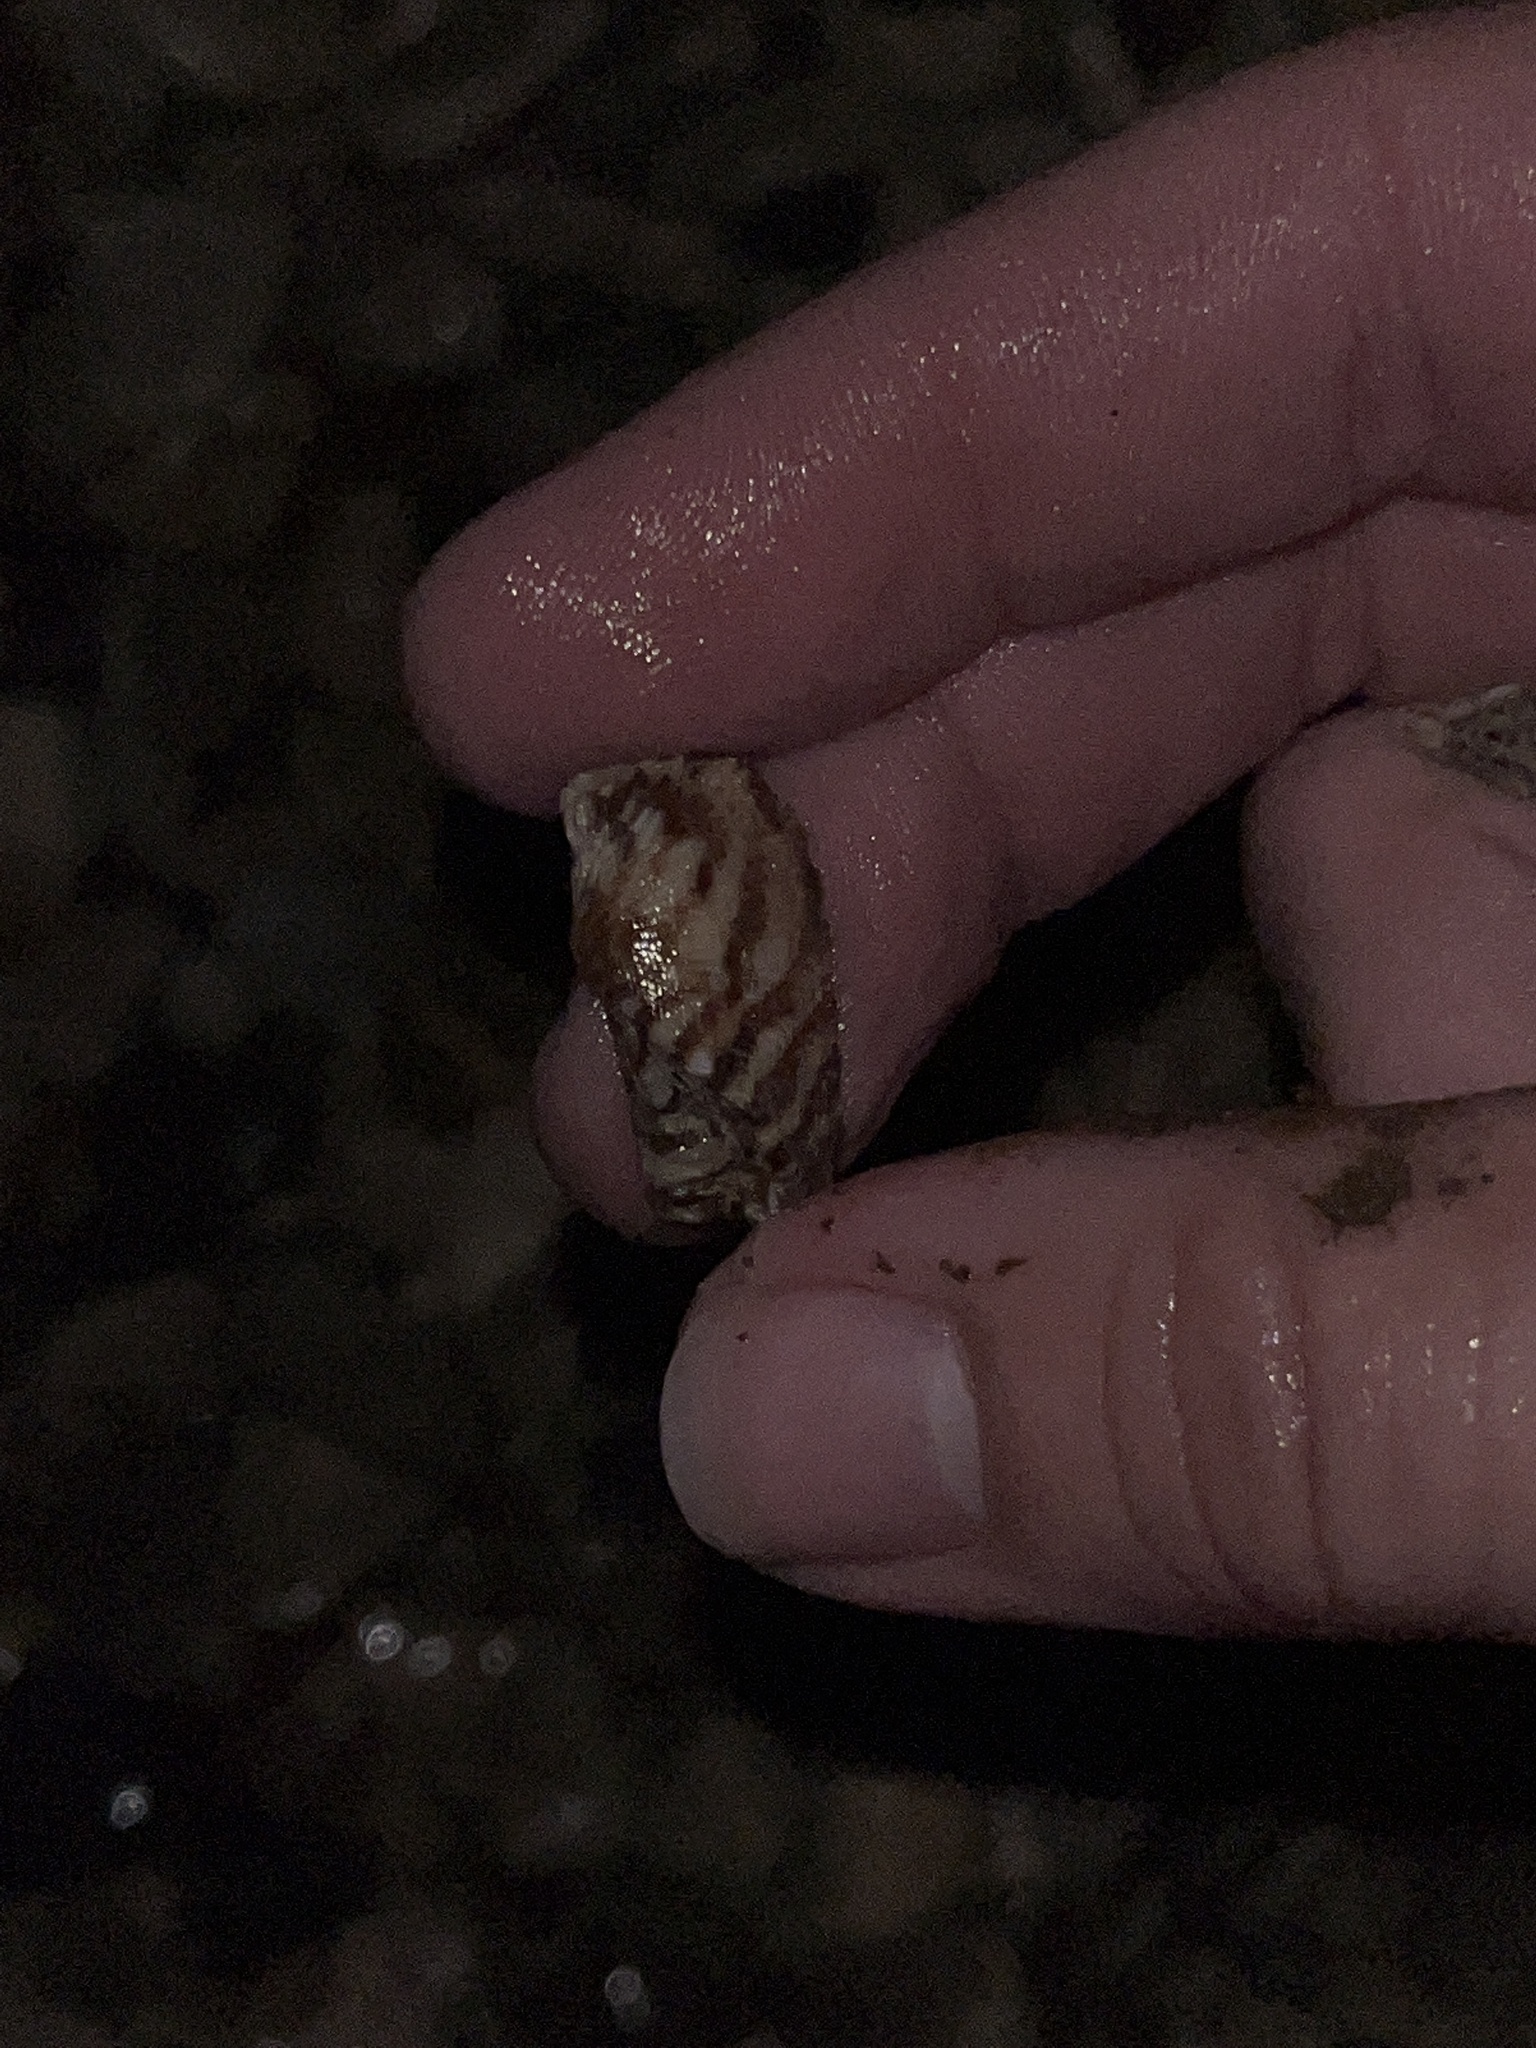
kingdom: Animalia
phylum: Mollusca
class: Bivalvia
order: Arcida
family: Arcidae
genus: Arca
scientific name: Arca noae
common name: Noah's arch
